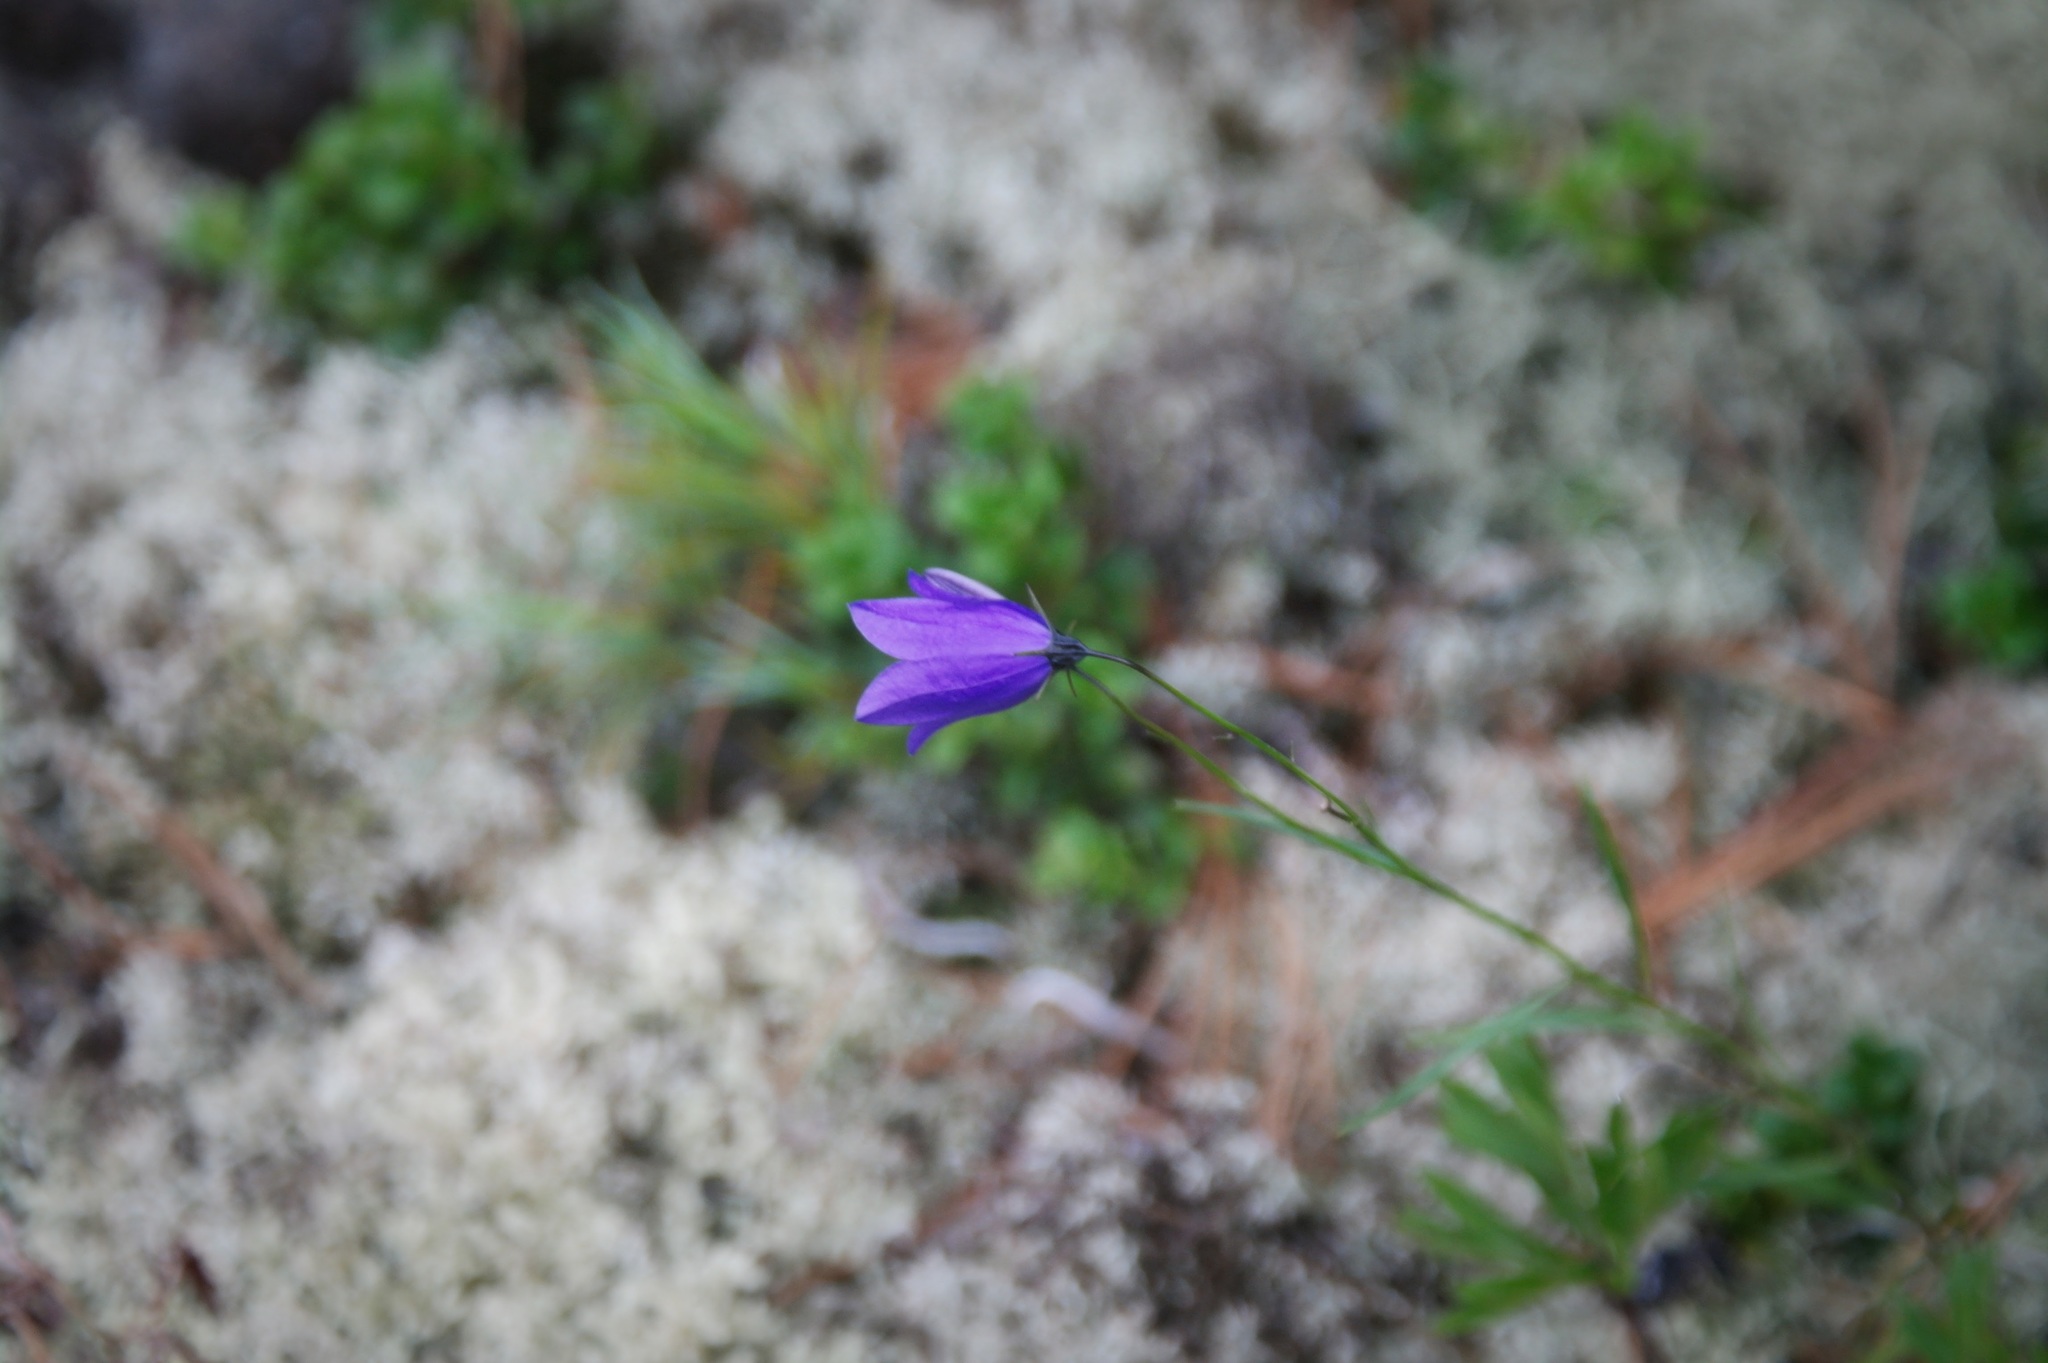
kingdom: Plantae
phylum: Tracheophyta
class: Magnoliopsida
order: Asterales
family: Campanulaceae
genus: Campanula
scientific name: Campanula rotundifolia
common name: Harebell
